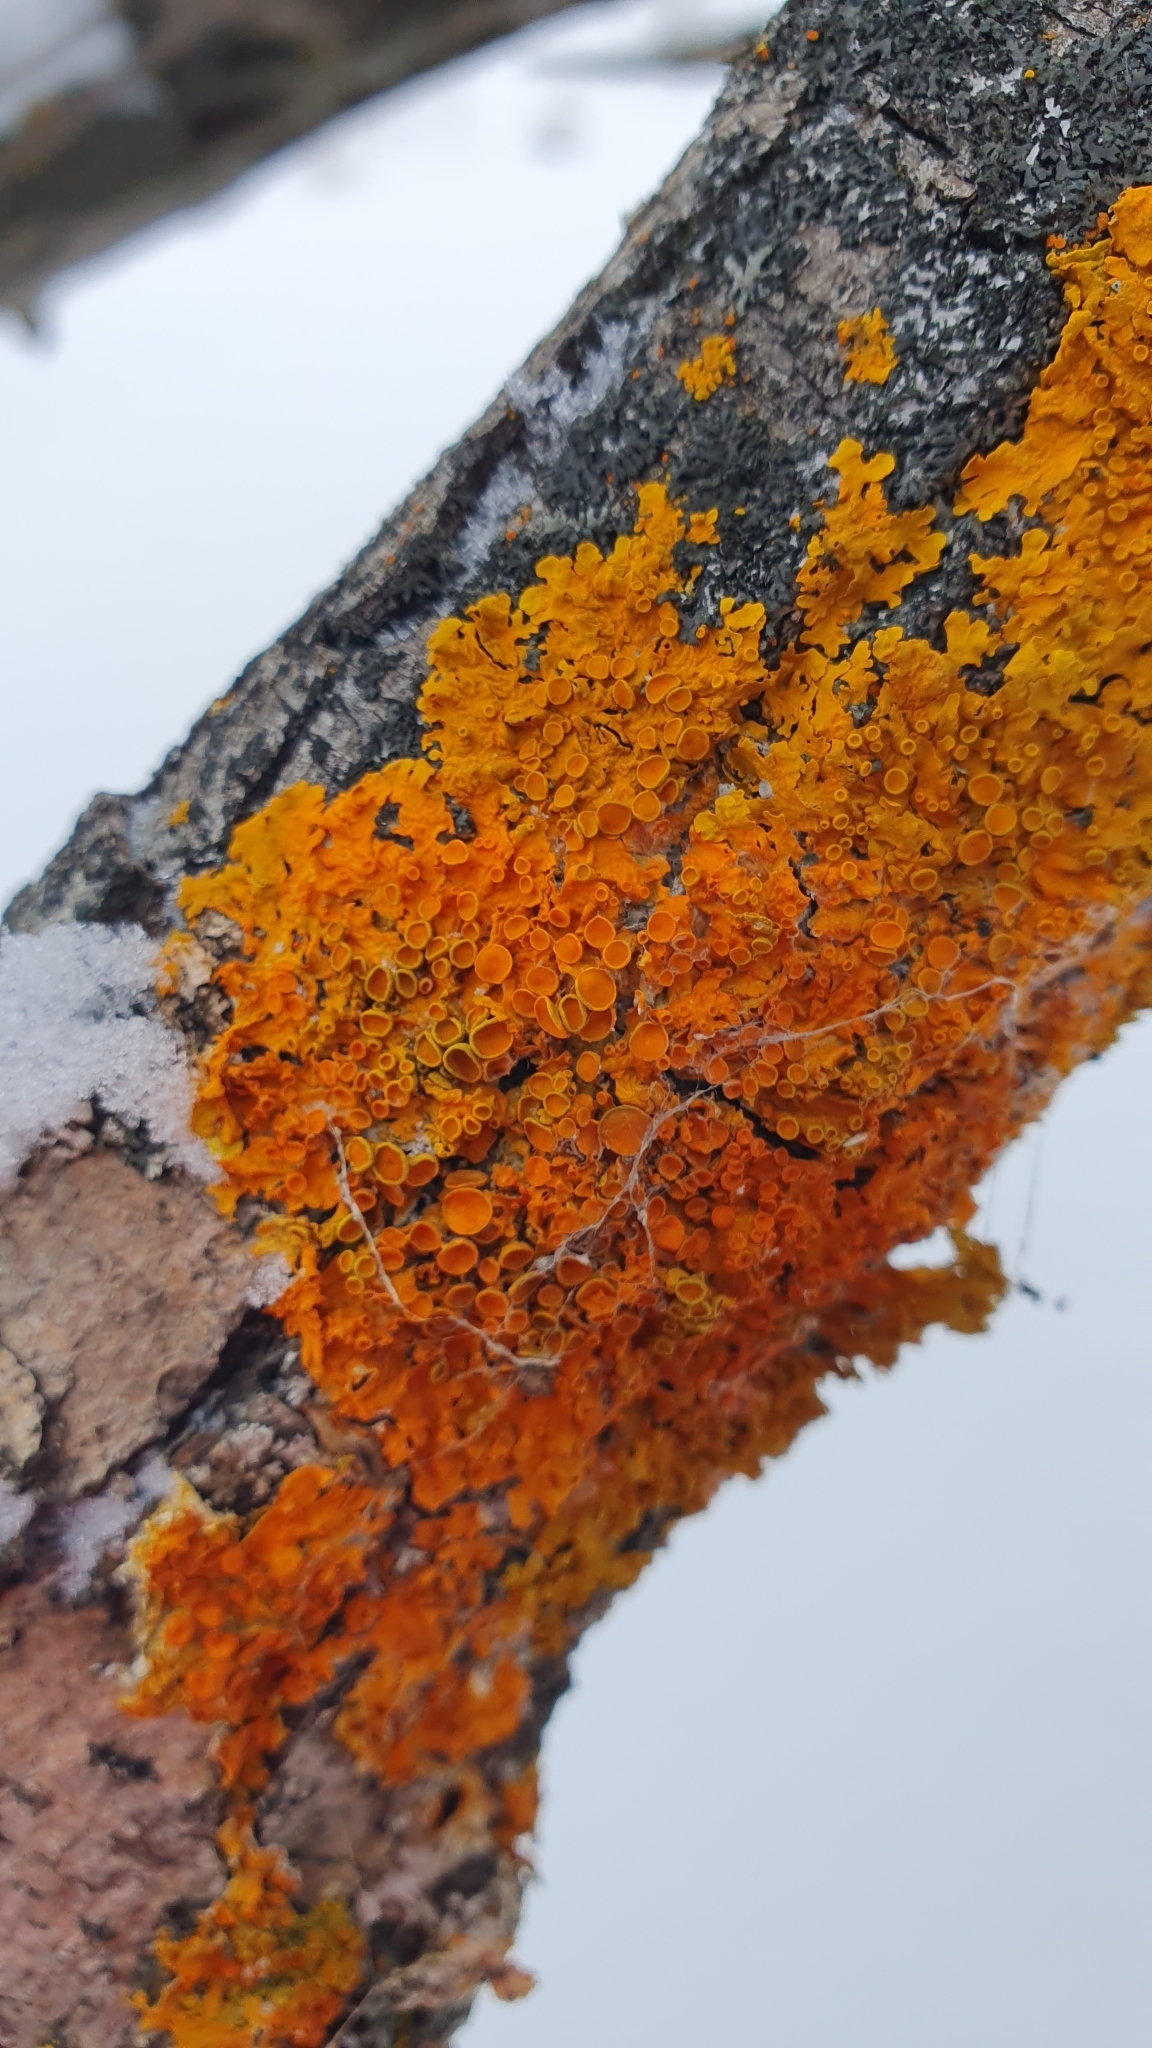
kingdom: Fungi
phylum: Ascomycota
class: Lecanoromycetes
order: Teloschistales
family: Teloschistaceae
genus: Xanthoria
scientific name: Xanthoria parietina
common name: Common orange lichen
